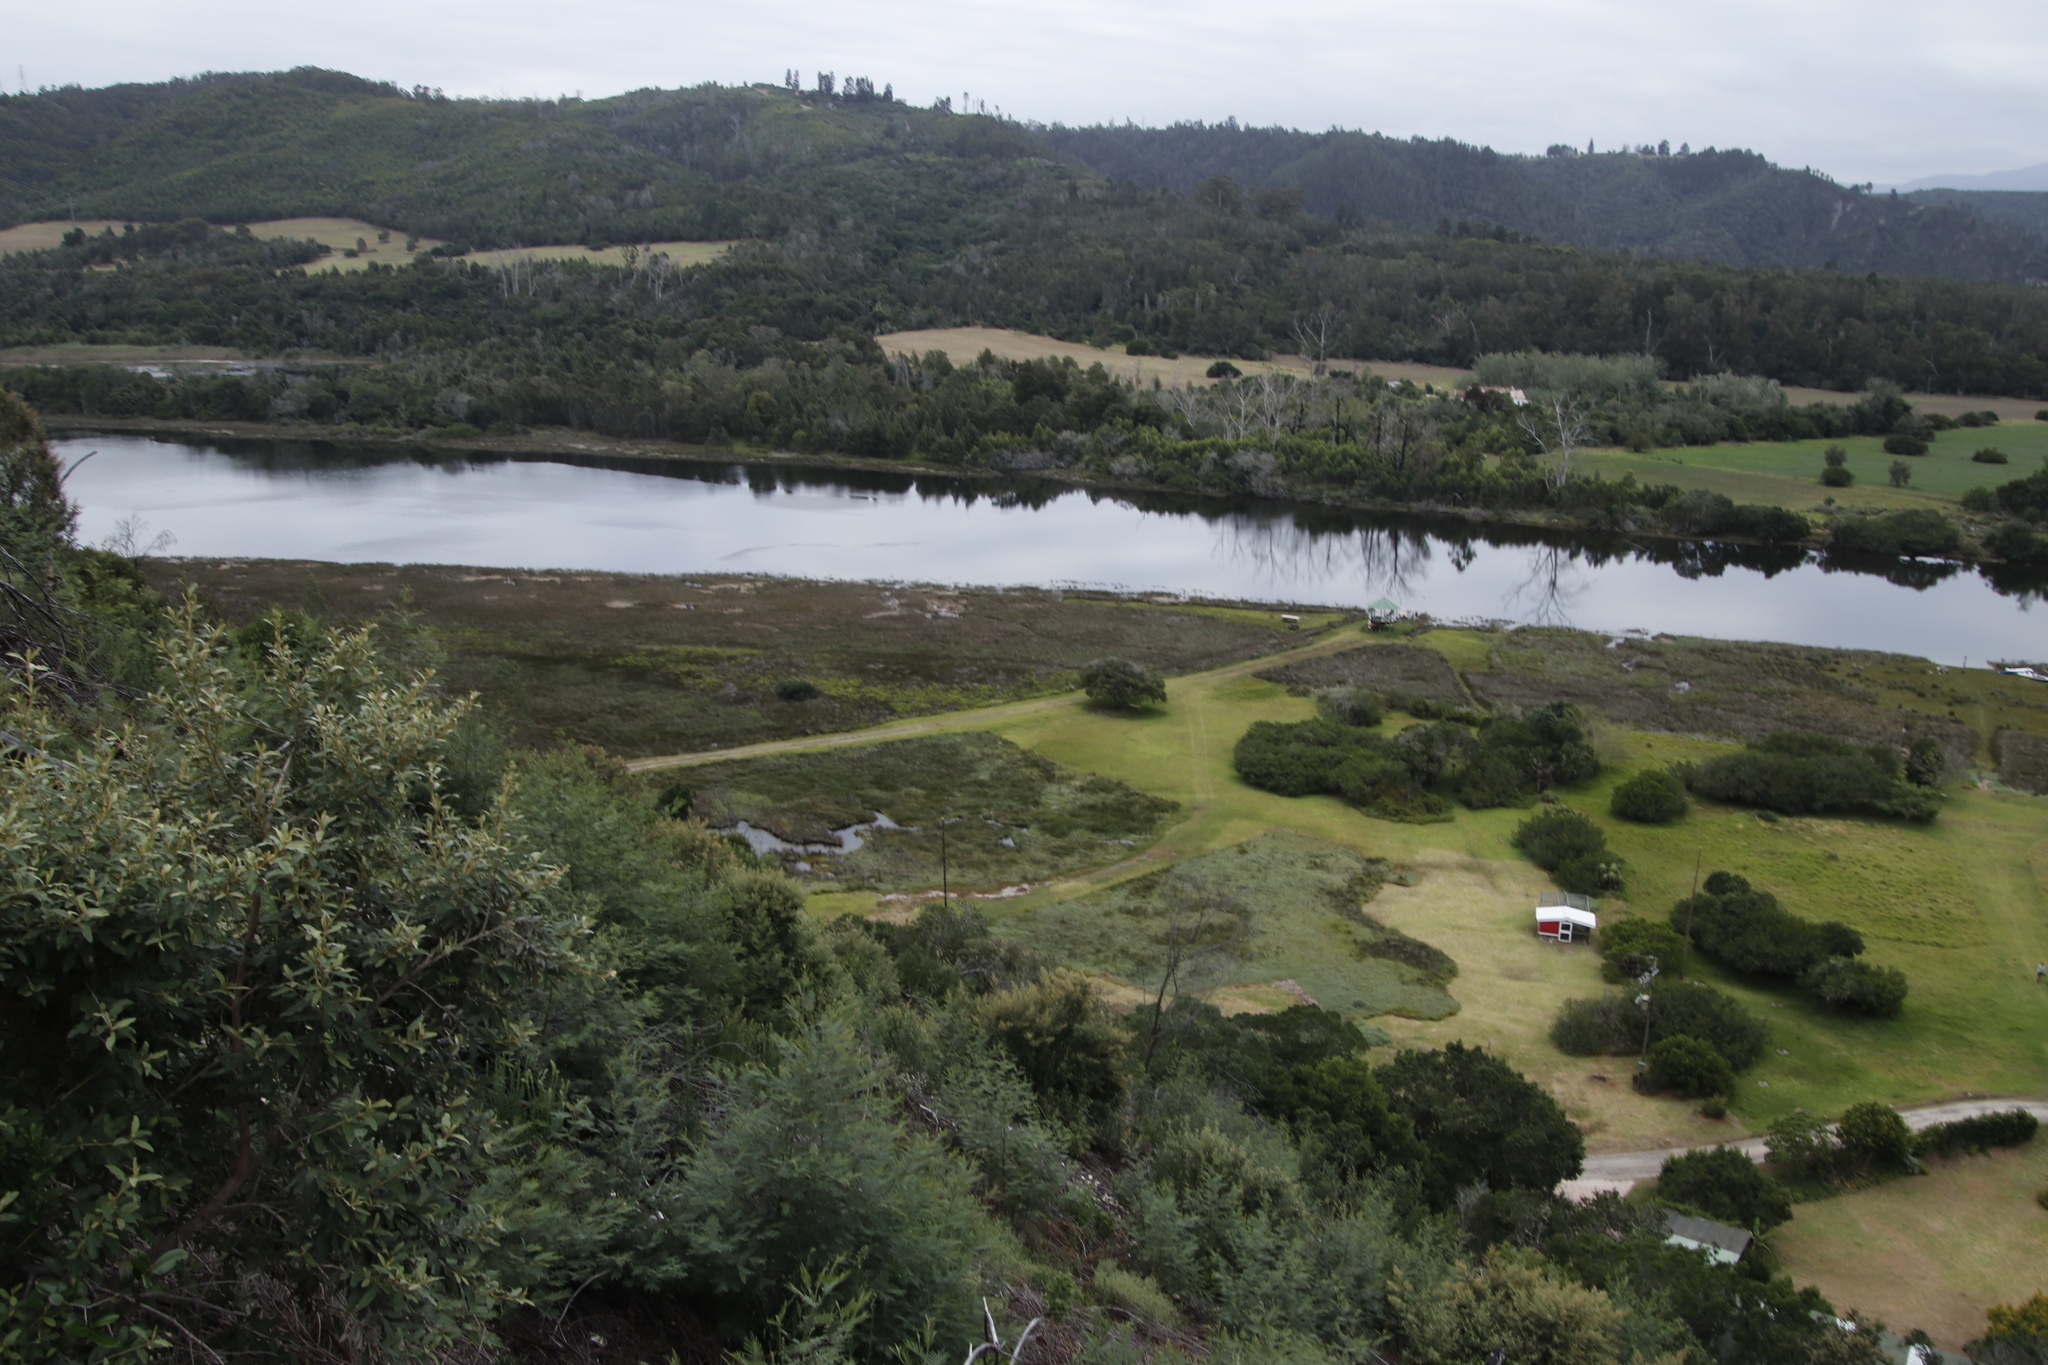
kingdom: Plantae
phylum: Tracheophyta
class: Magnoliopsida
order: Fabales
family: Fabaceae
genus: Acacia
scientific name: Acacia mearnsii
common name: Black wattle
